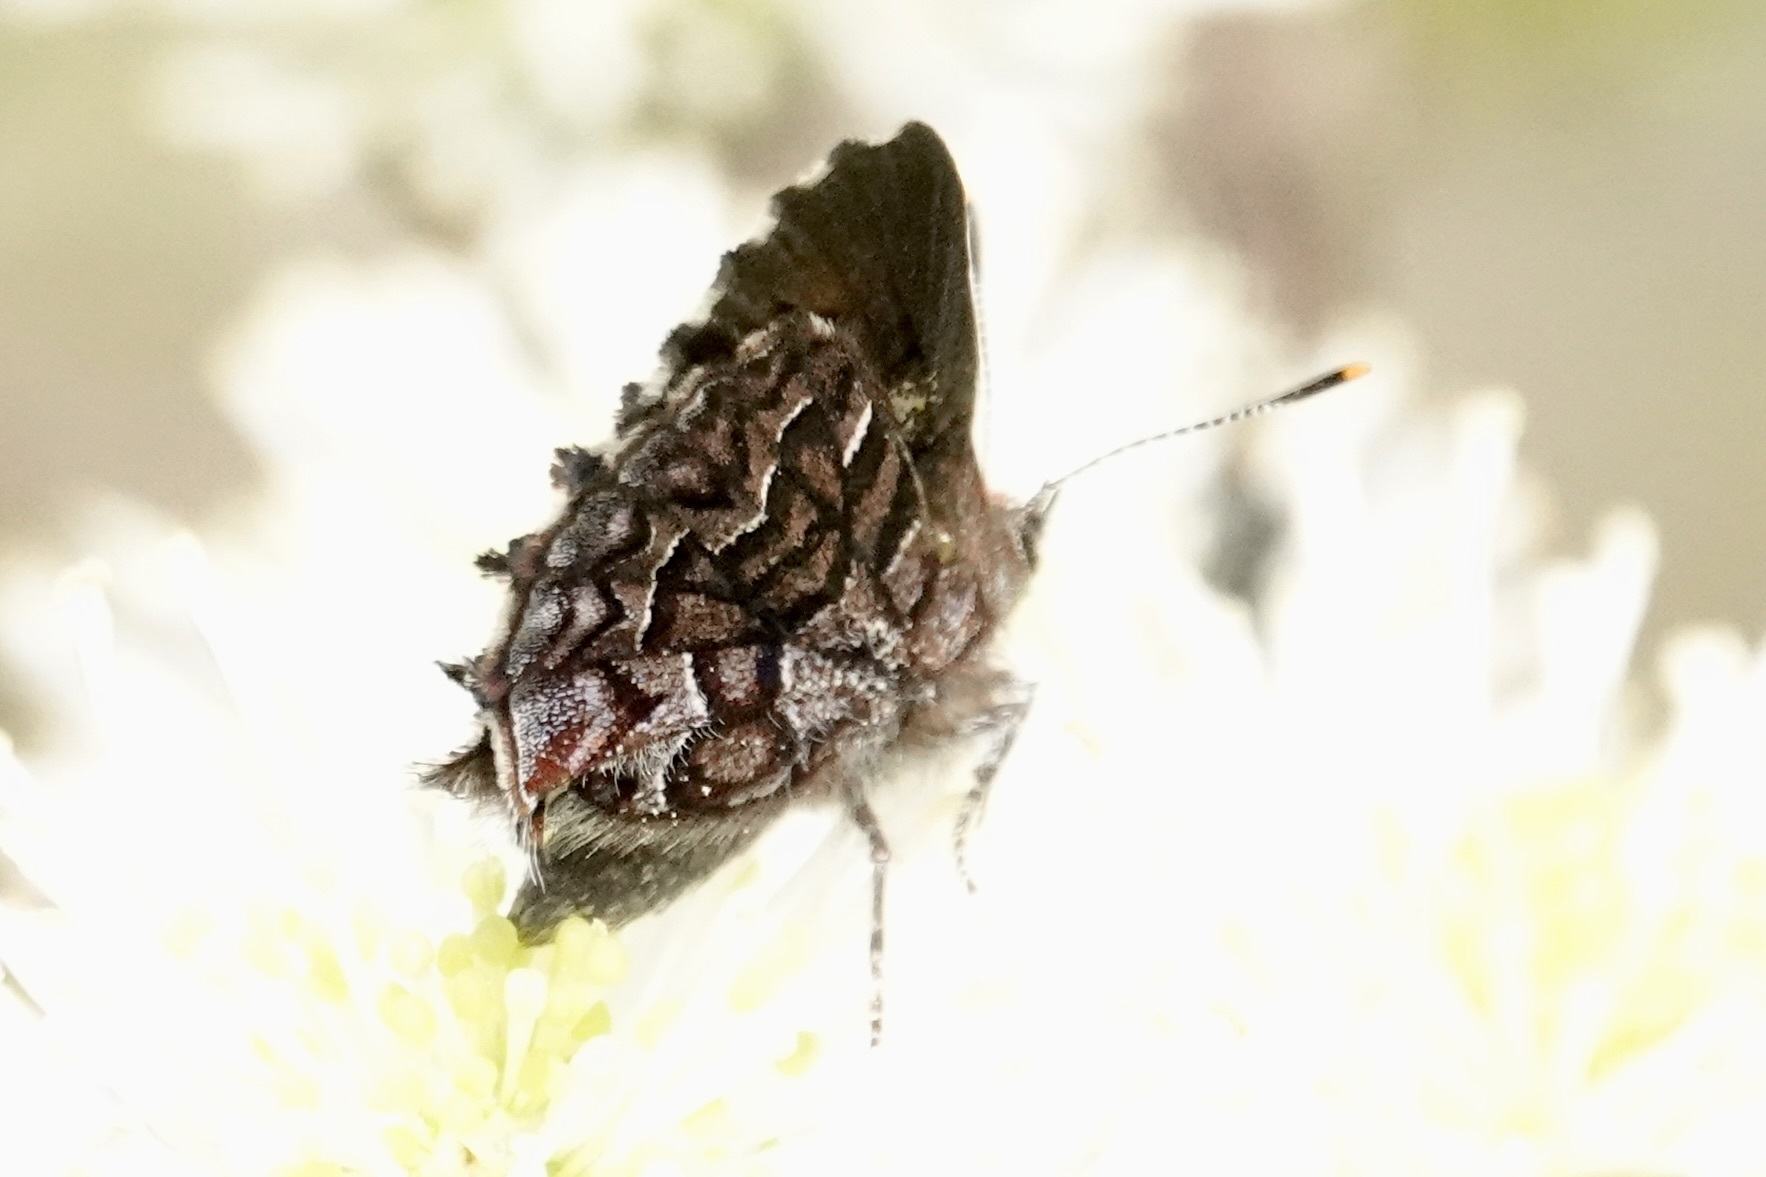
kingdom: Animalia
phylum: Arthropoda
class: Insecta
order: Lepidoptera
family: Lycaenidae
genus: Incisalia
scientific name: Incisalia niphon
